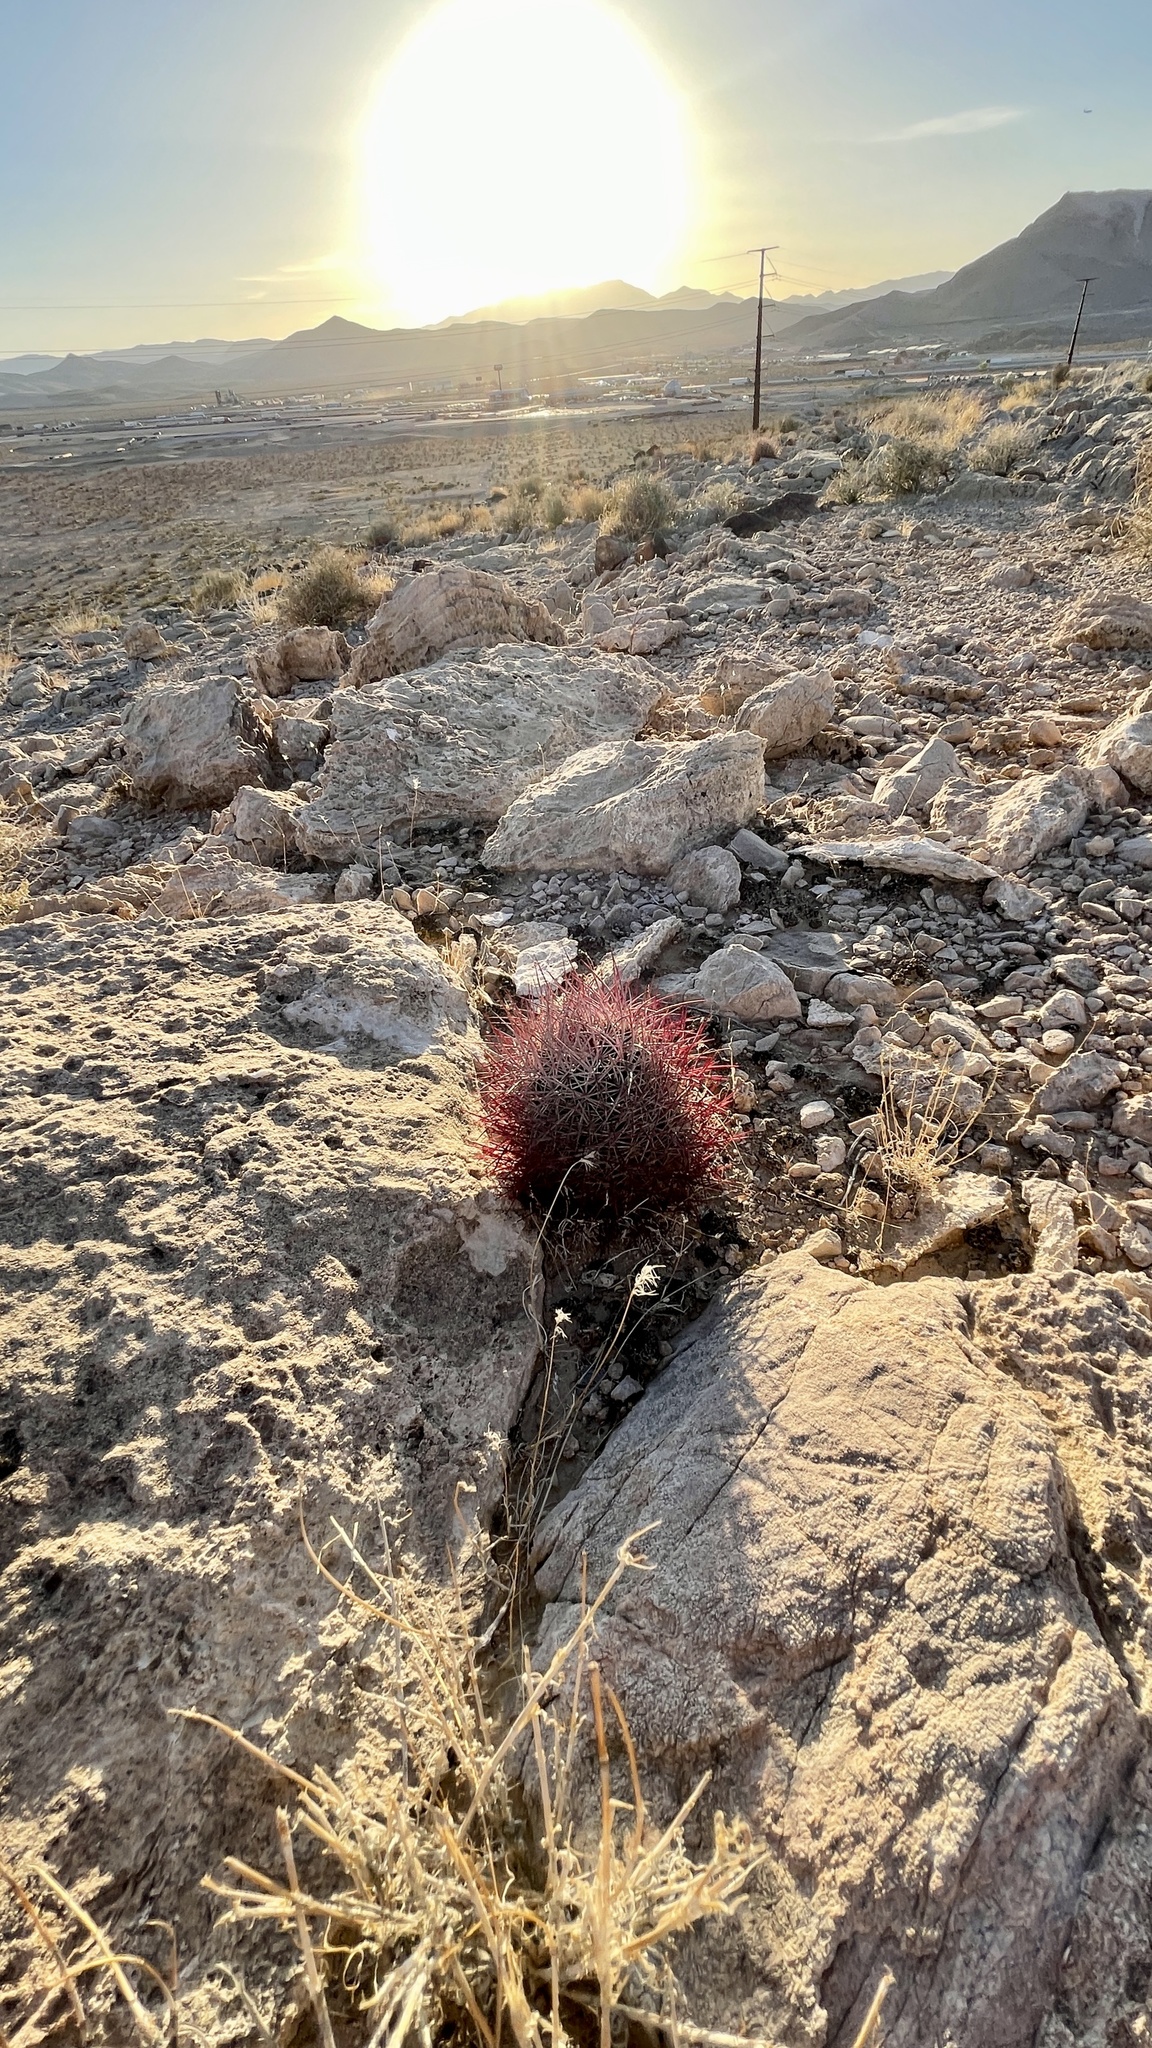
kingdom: Plantae
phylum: Tracheophyta
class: Magnoliopsida
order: Caryophyllales
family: Cactaceae
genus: Sclerocactus
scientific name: Sclerocactus johnsonii
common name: Eight-spine fishhook cactus
